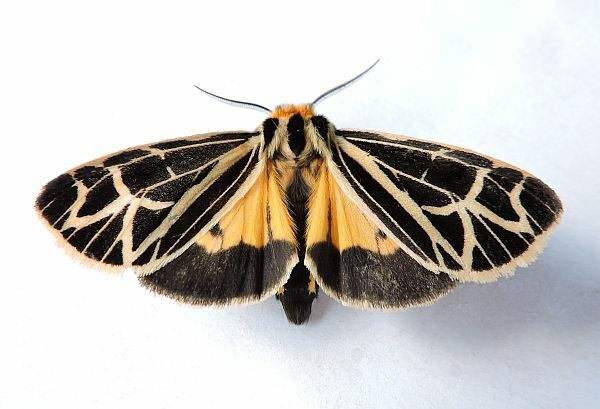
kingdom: Animalia
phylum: Arthropoda
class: Insecta
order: Lepidoptera
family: Erebidae
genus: Apantesis
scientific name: Apantesis
